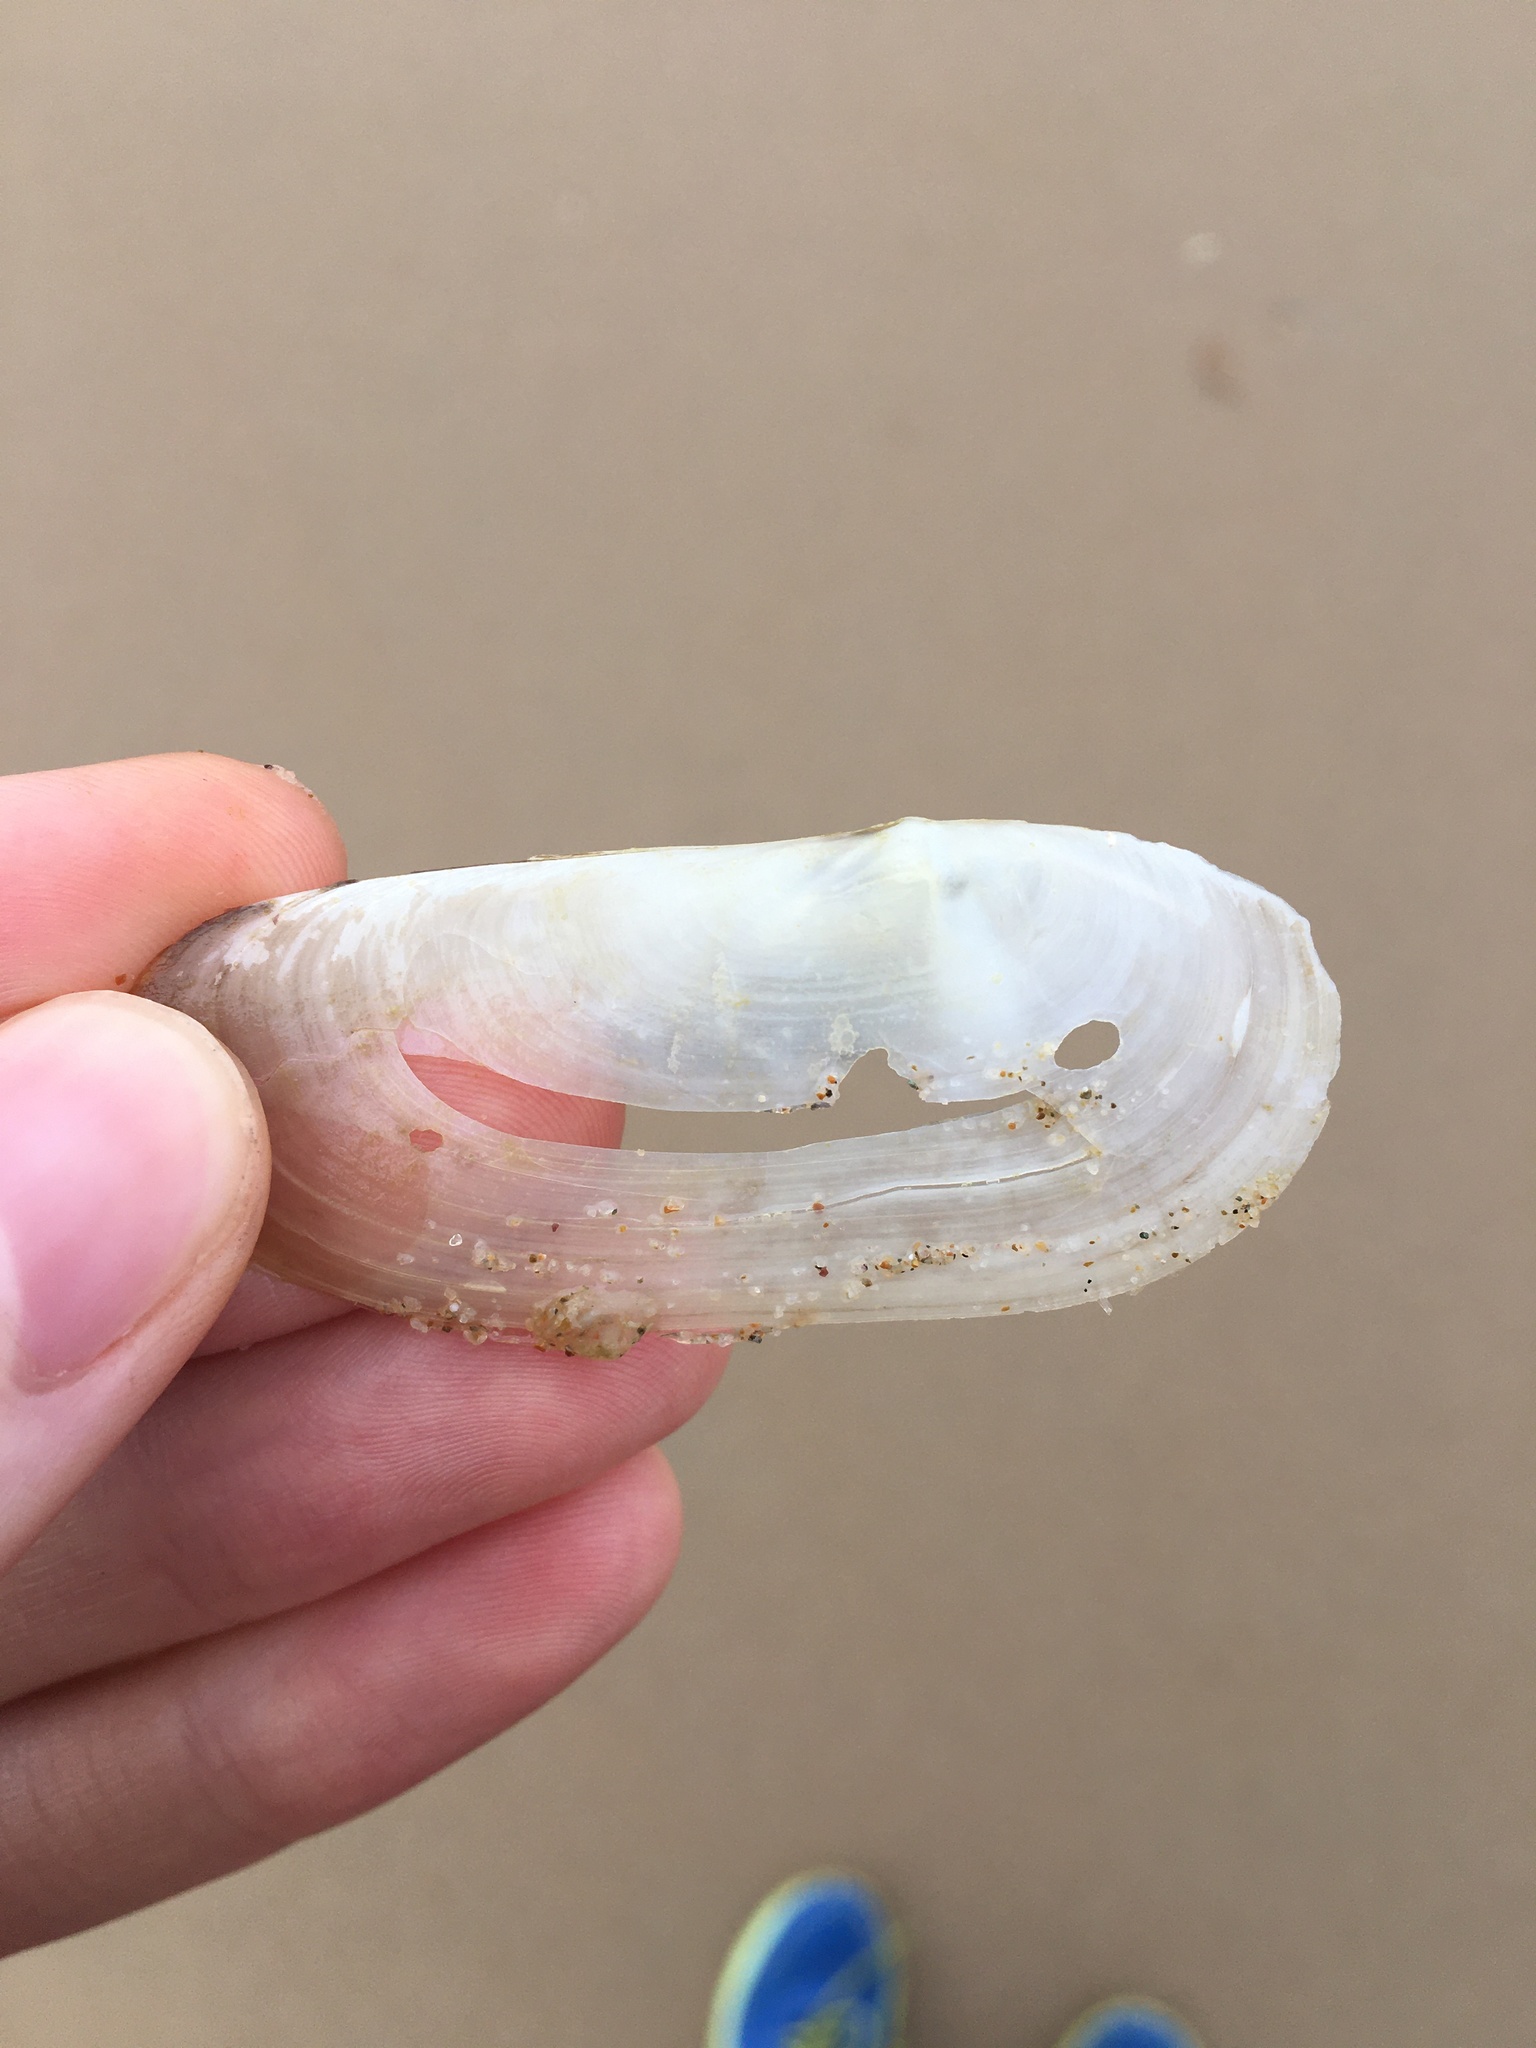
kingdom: Animalia
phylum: Mollusca
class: Bivalvia
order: Venerida
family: Mactridae
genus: Zenatina
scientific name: Zenatina victoriae
